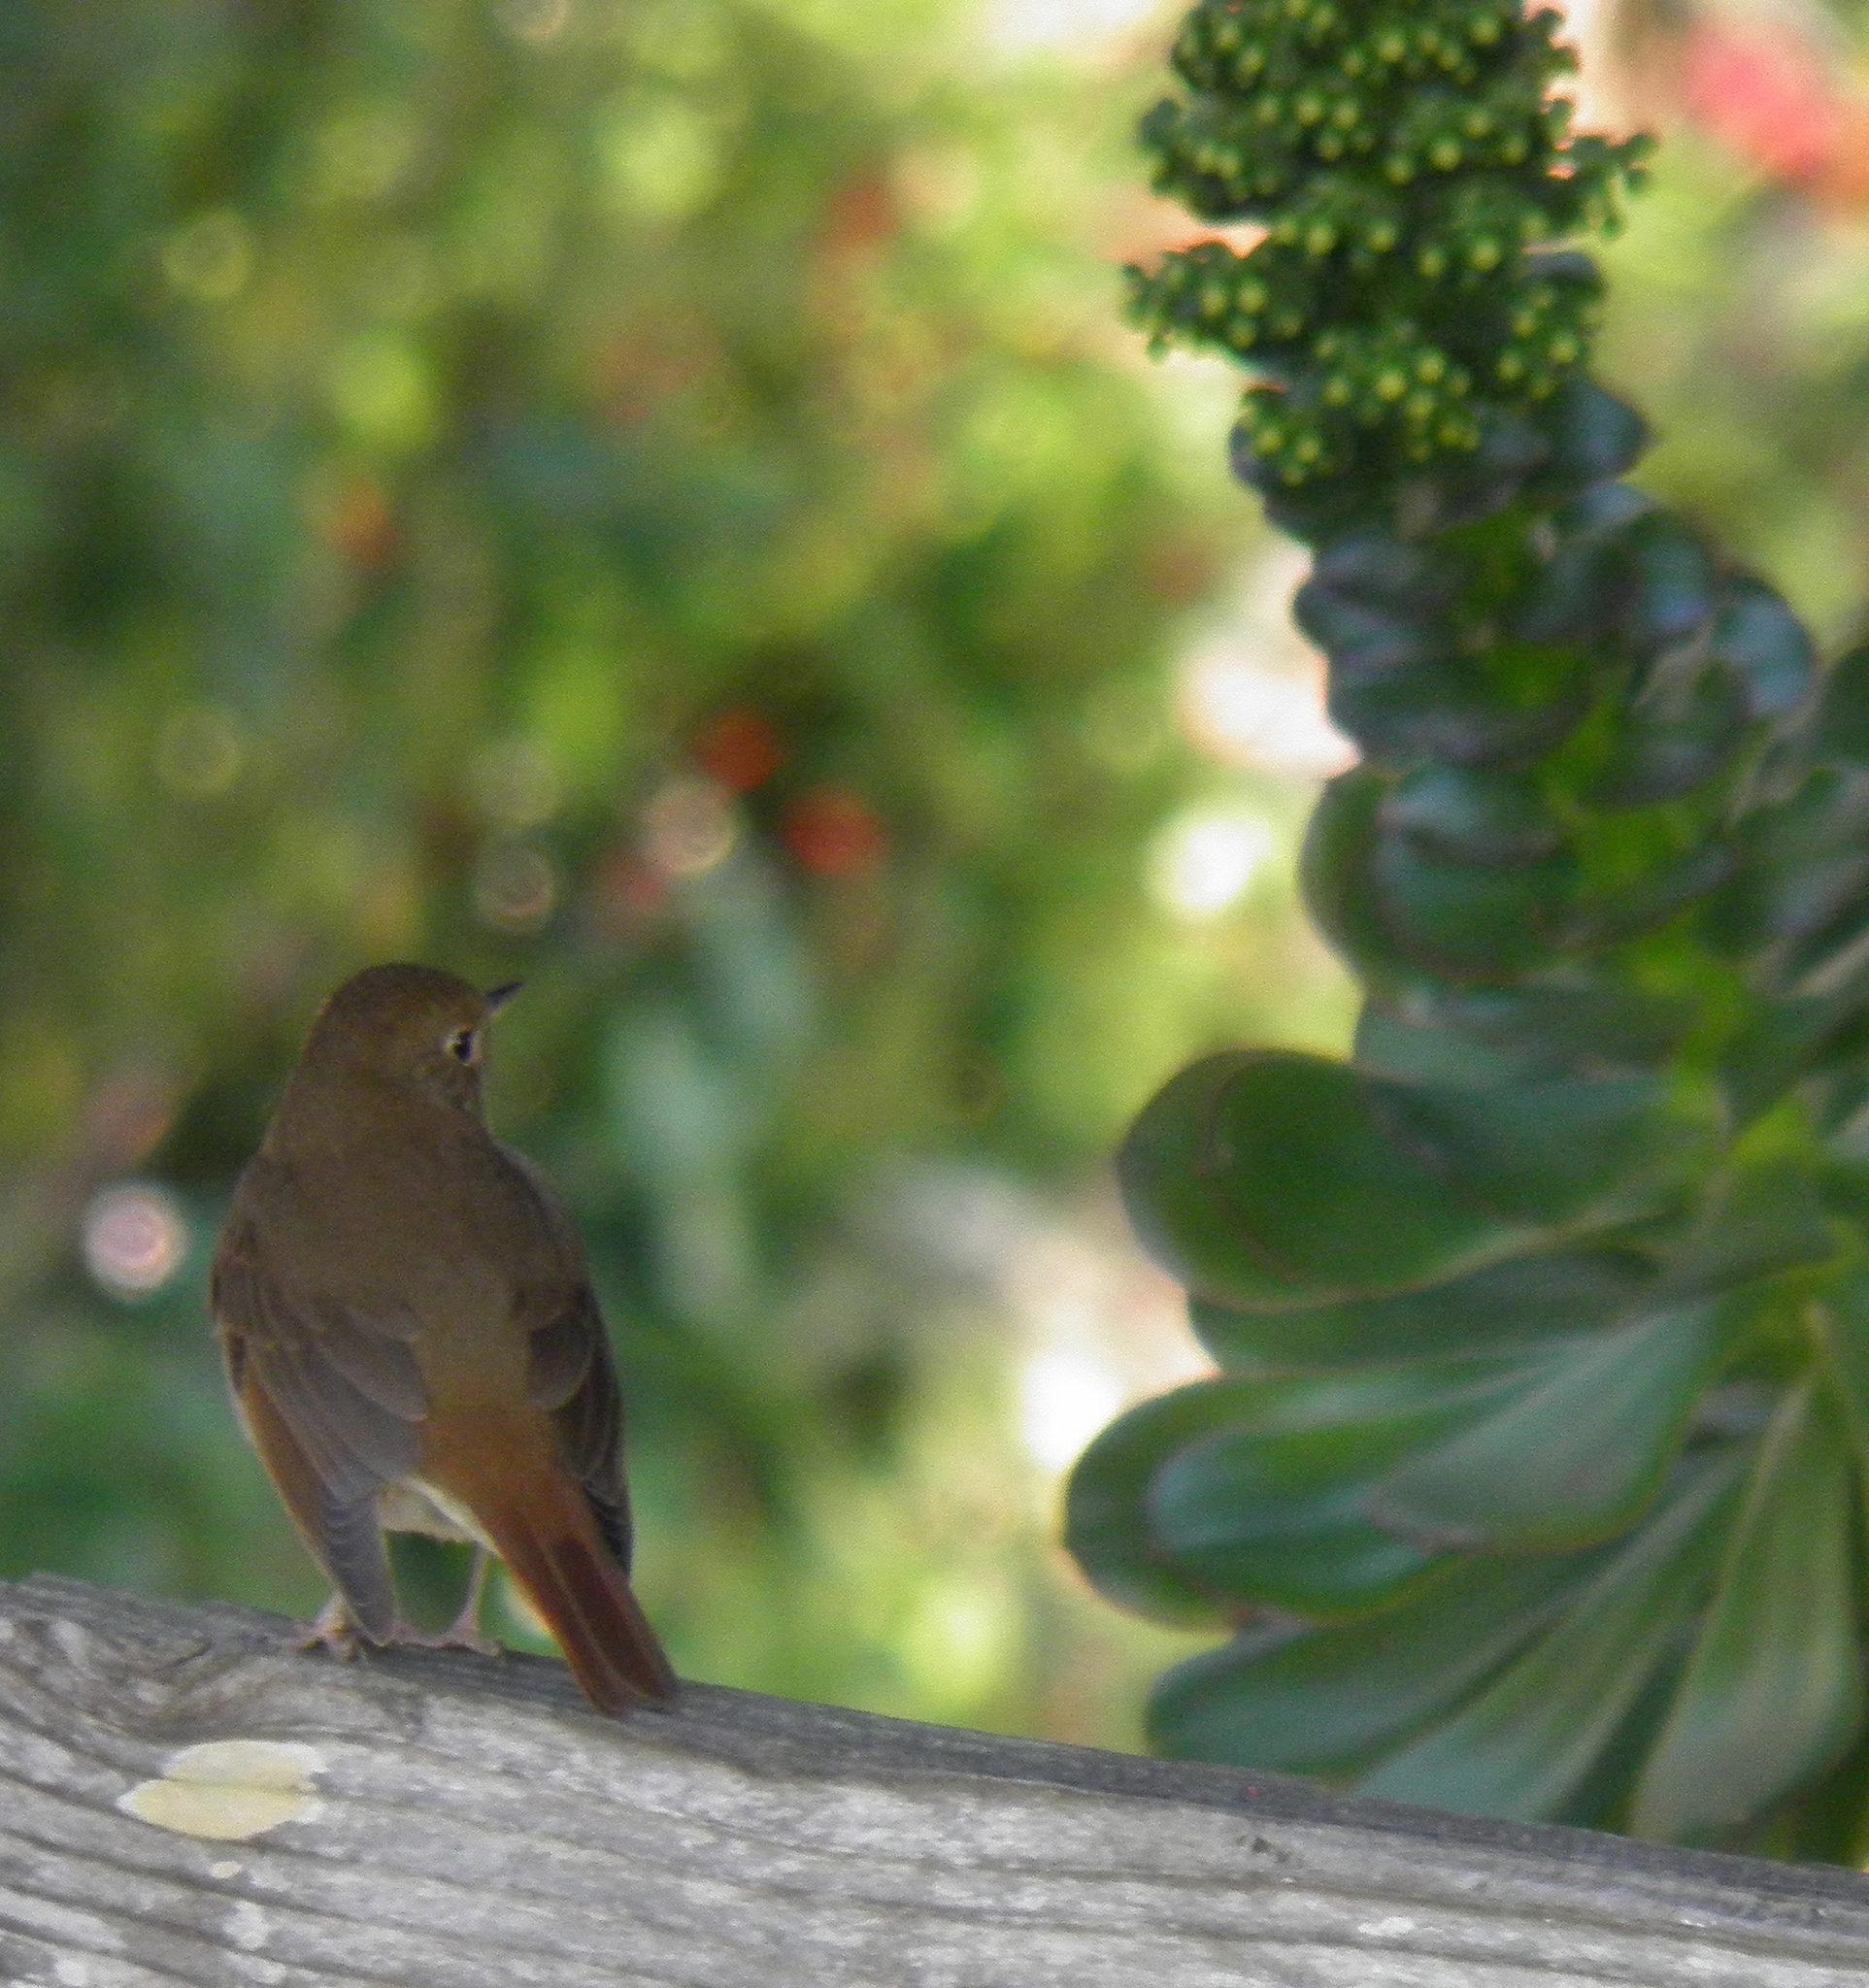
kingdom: Animalia
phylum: Chordata
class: Aves
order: Passeriformes
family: Turdidae
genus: Catharus
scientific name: Catharus guttatus
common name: Hermit thrush
